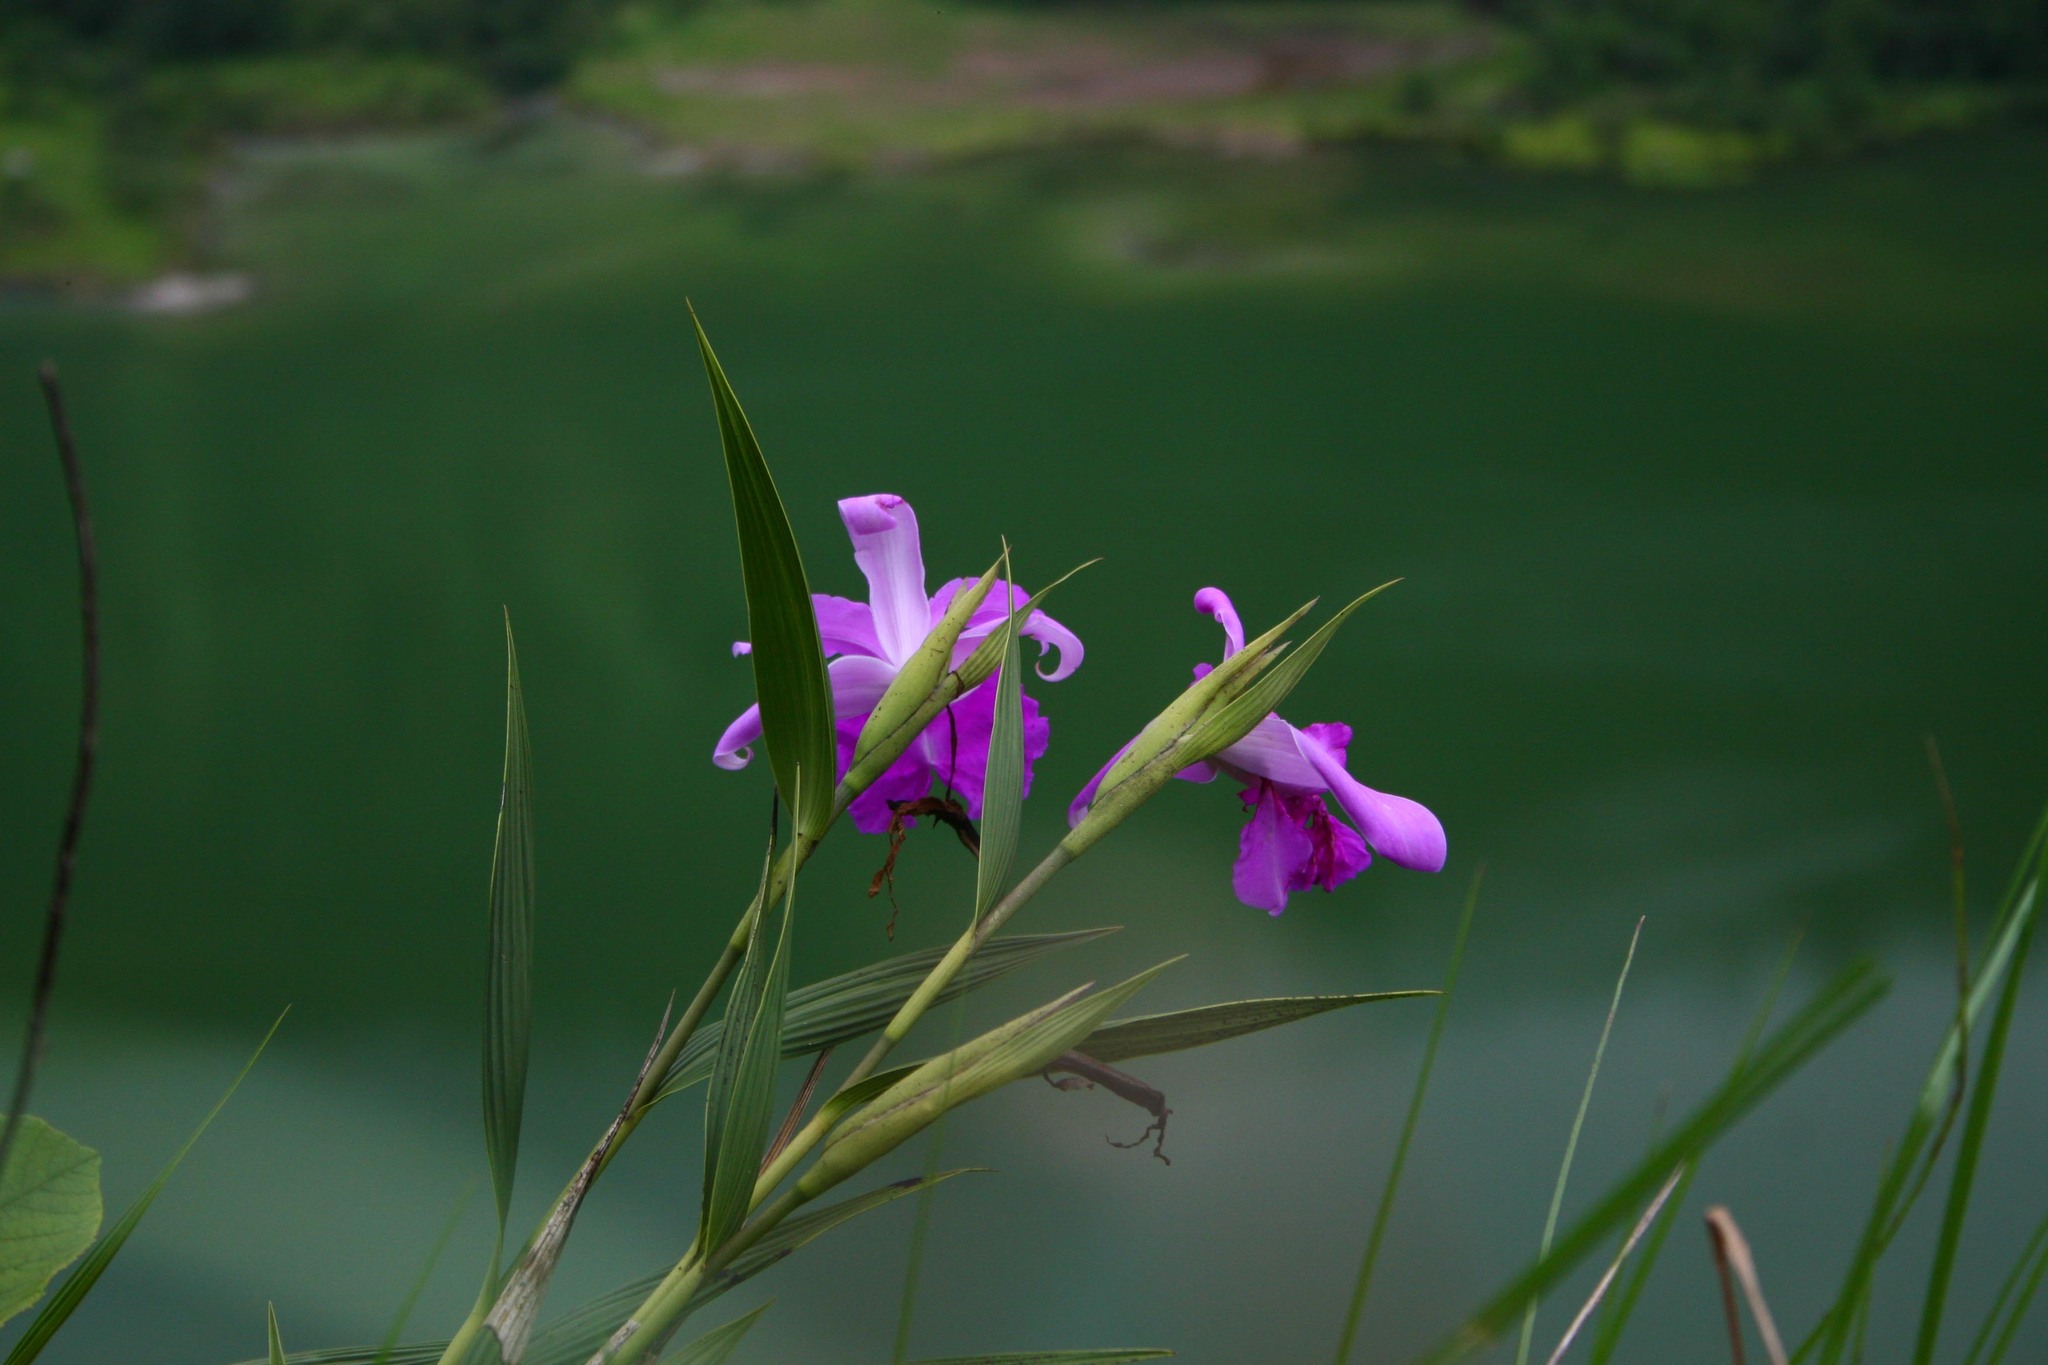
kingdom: Plantae
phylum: Tracheophyta
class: Liliopsida
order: Asparagales
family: Orchidaceae
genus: Sobralia
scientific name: Sobralia macrantha
